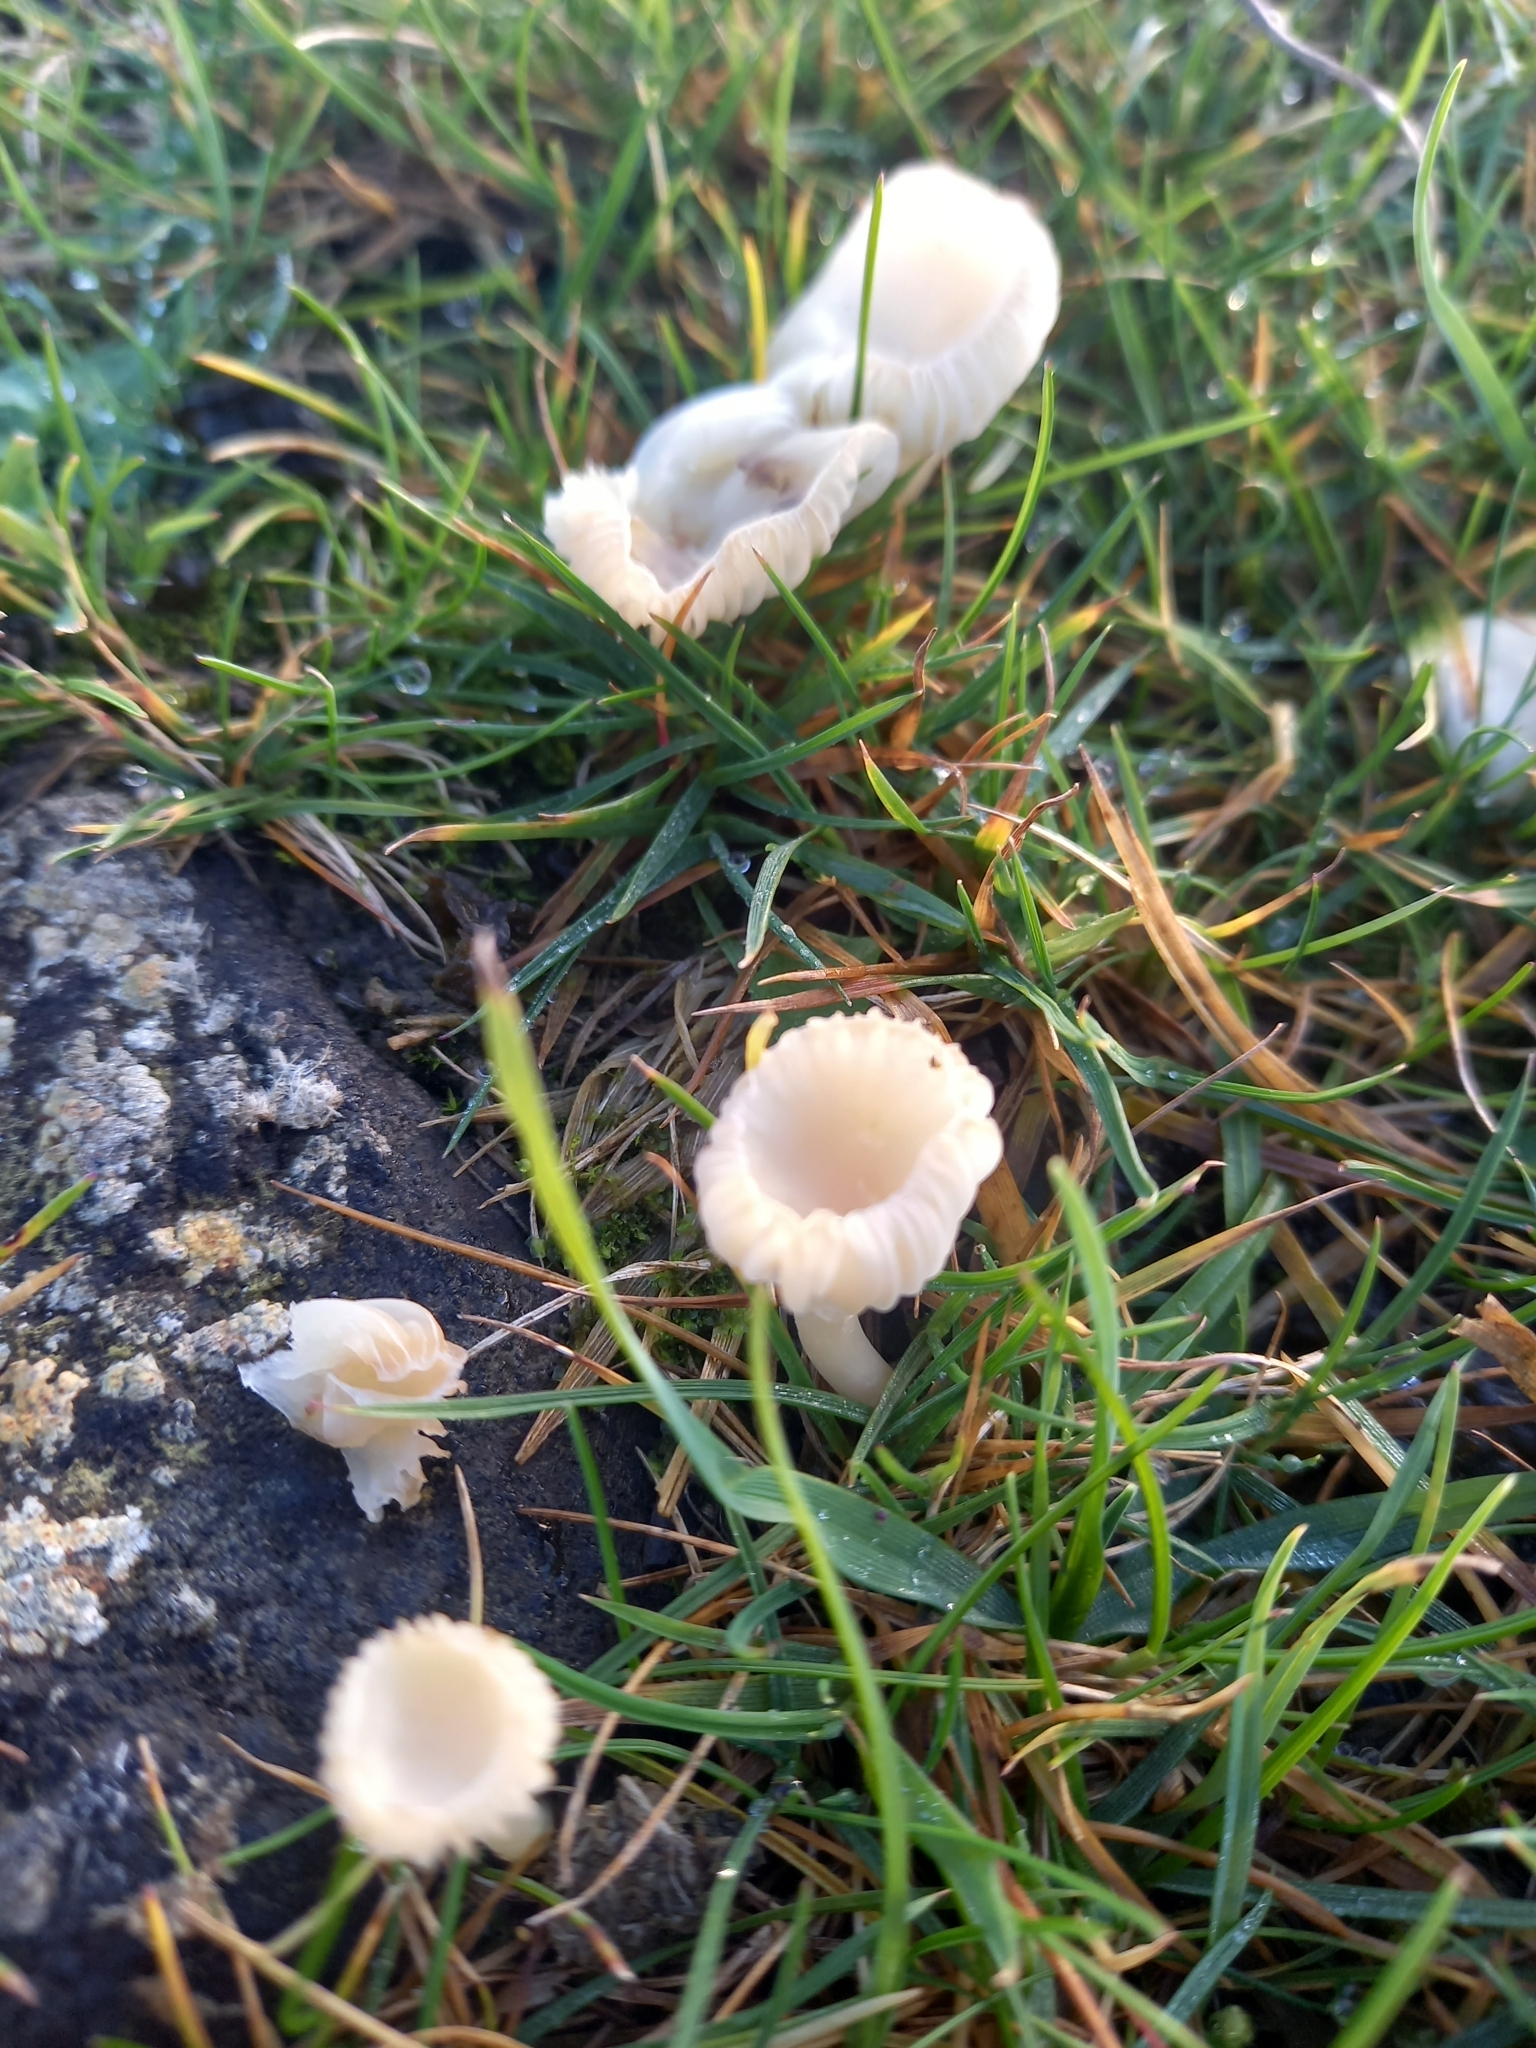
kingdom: Fungi
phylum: Basidiomycota
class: Agaricomycetes
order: Agaricales
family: Hygrophoraceae
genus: Cuphophyllus
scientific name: Cuphophyllus virgineus
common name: Snowy waxcap
